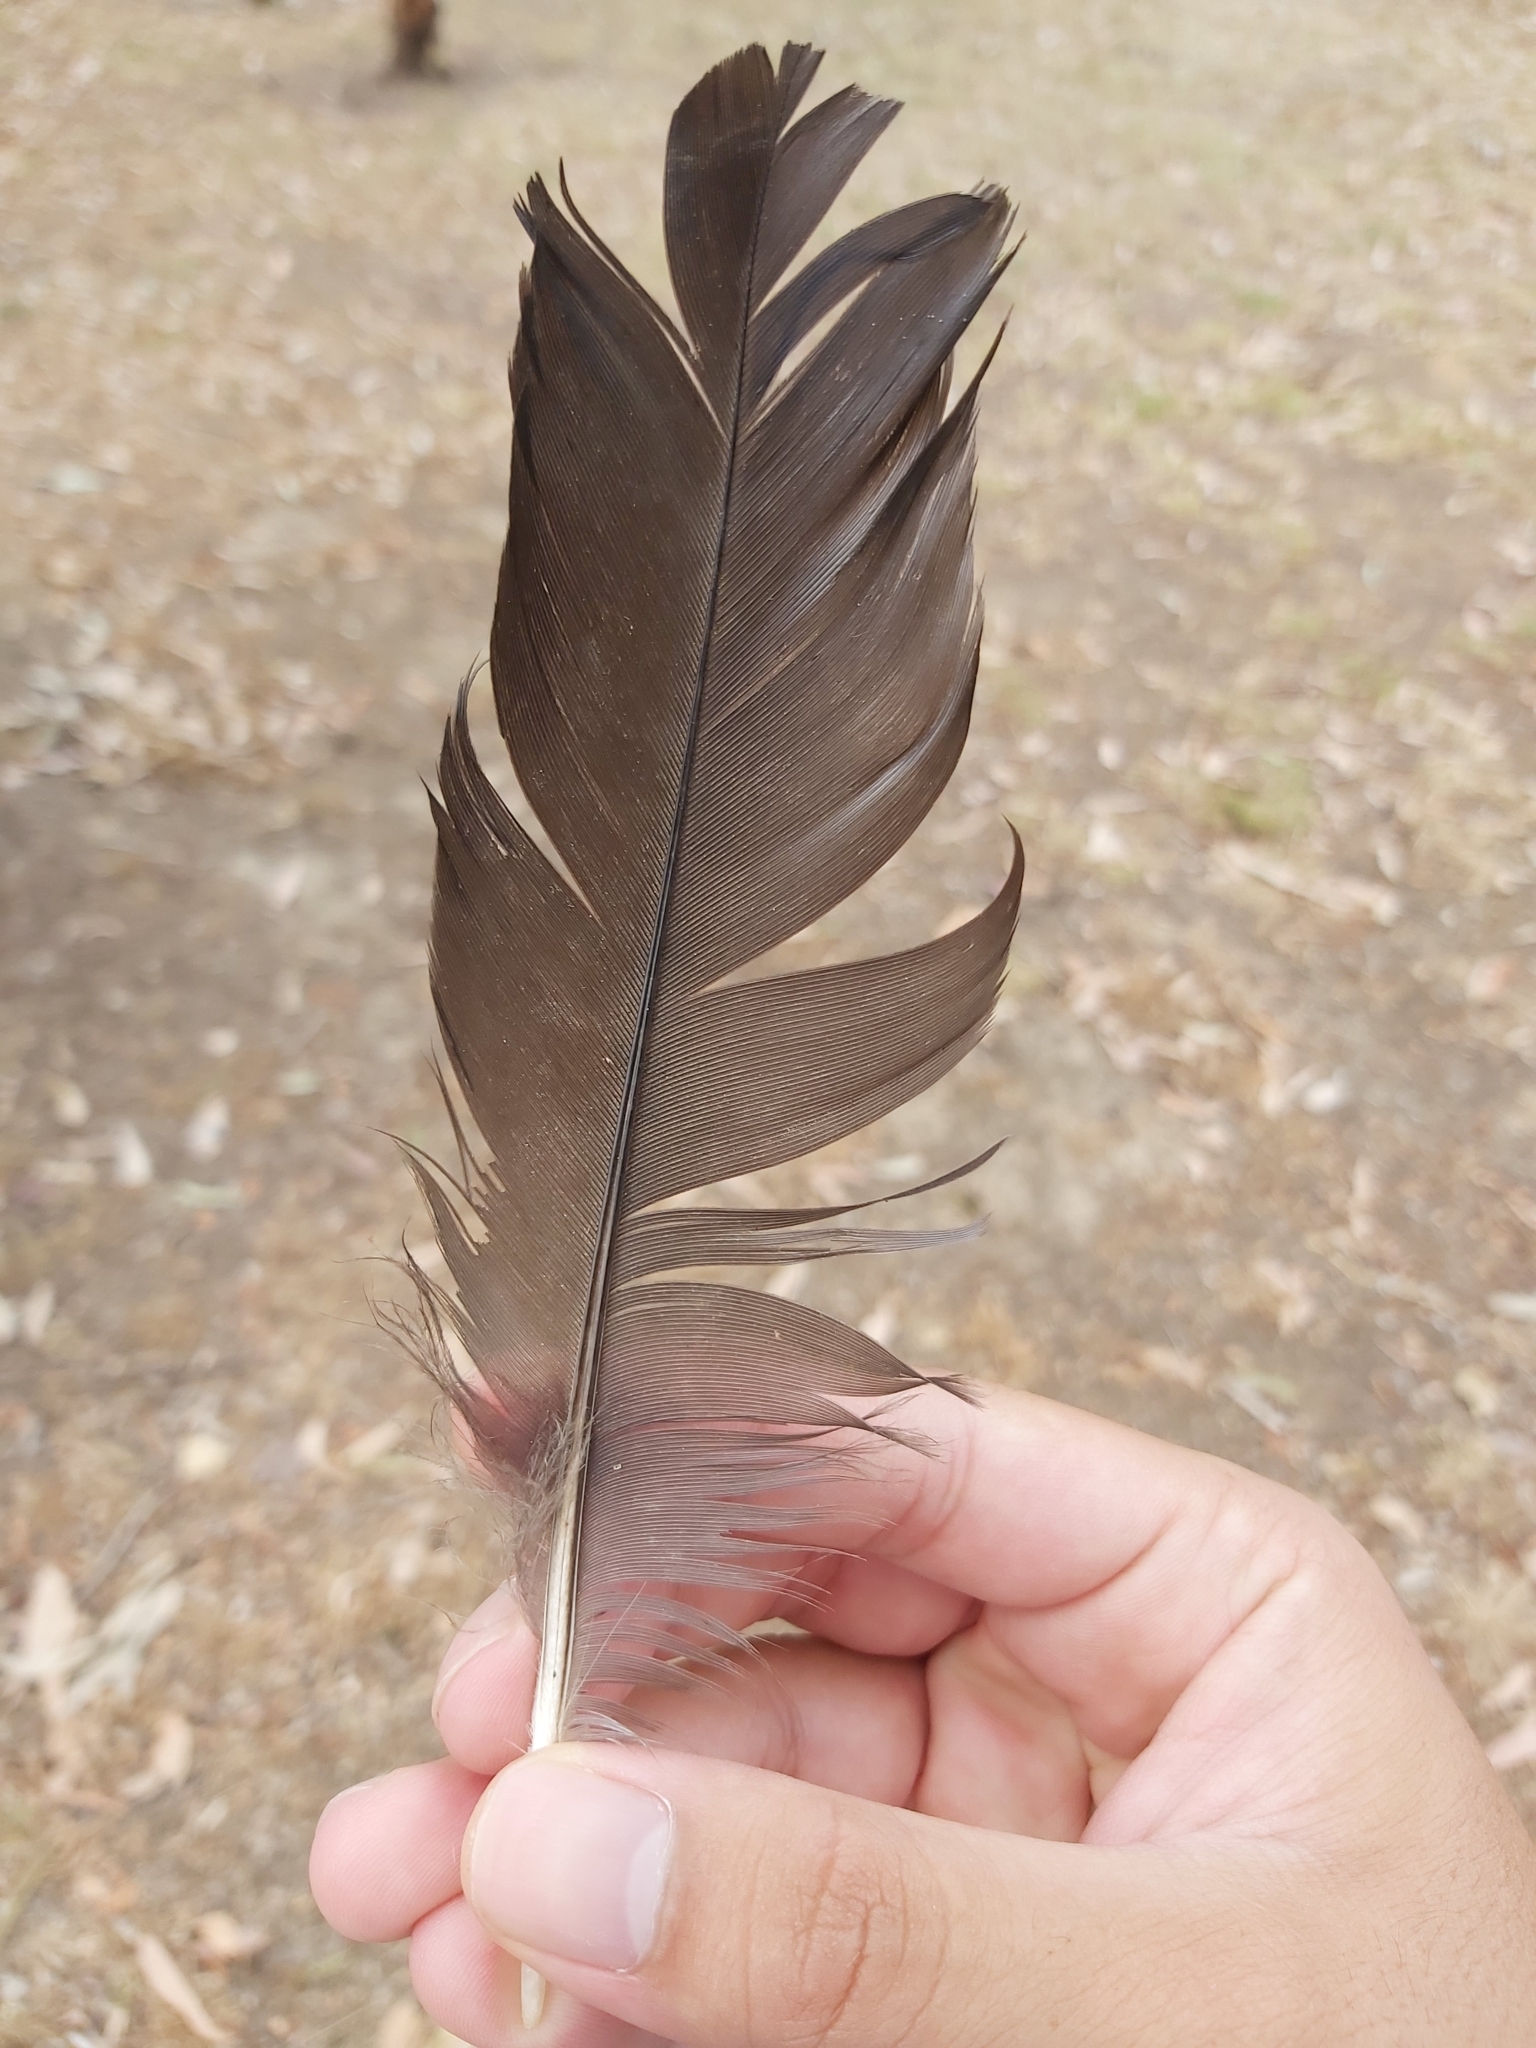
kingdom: Animalia
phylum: Chordata
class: Aves
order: Gruiformes
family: Rallidae
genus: Gallinula
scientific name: Gallinula tenebrosa
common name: Dusky moorhen
